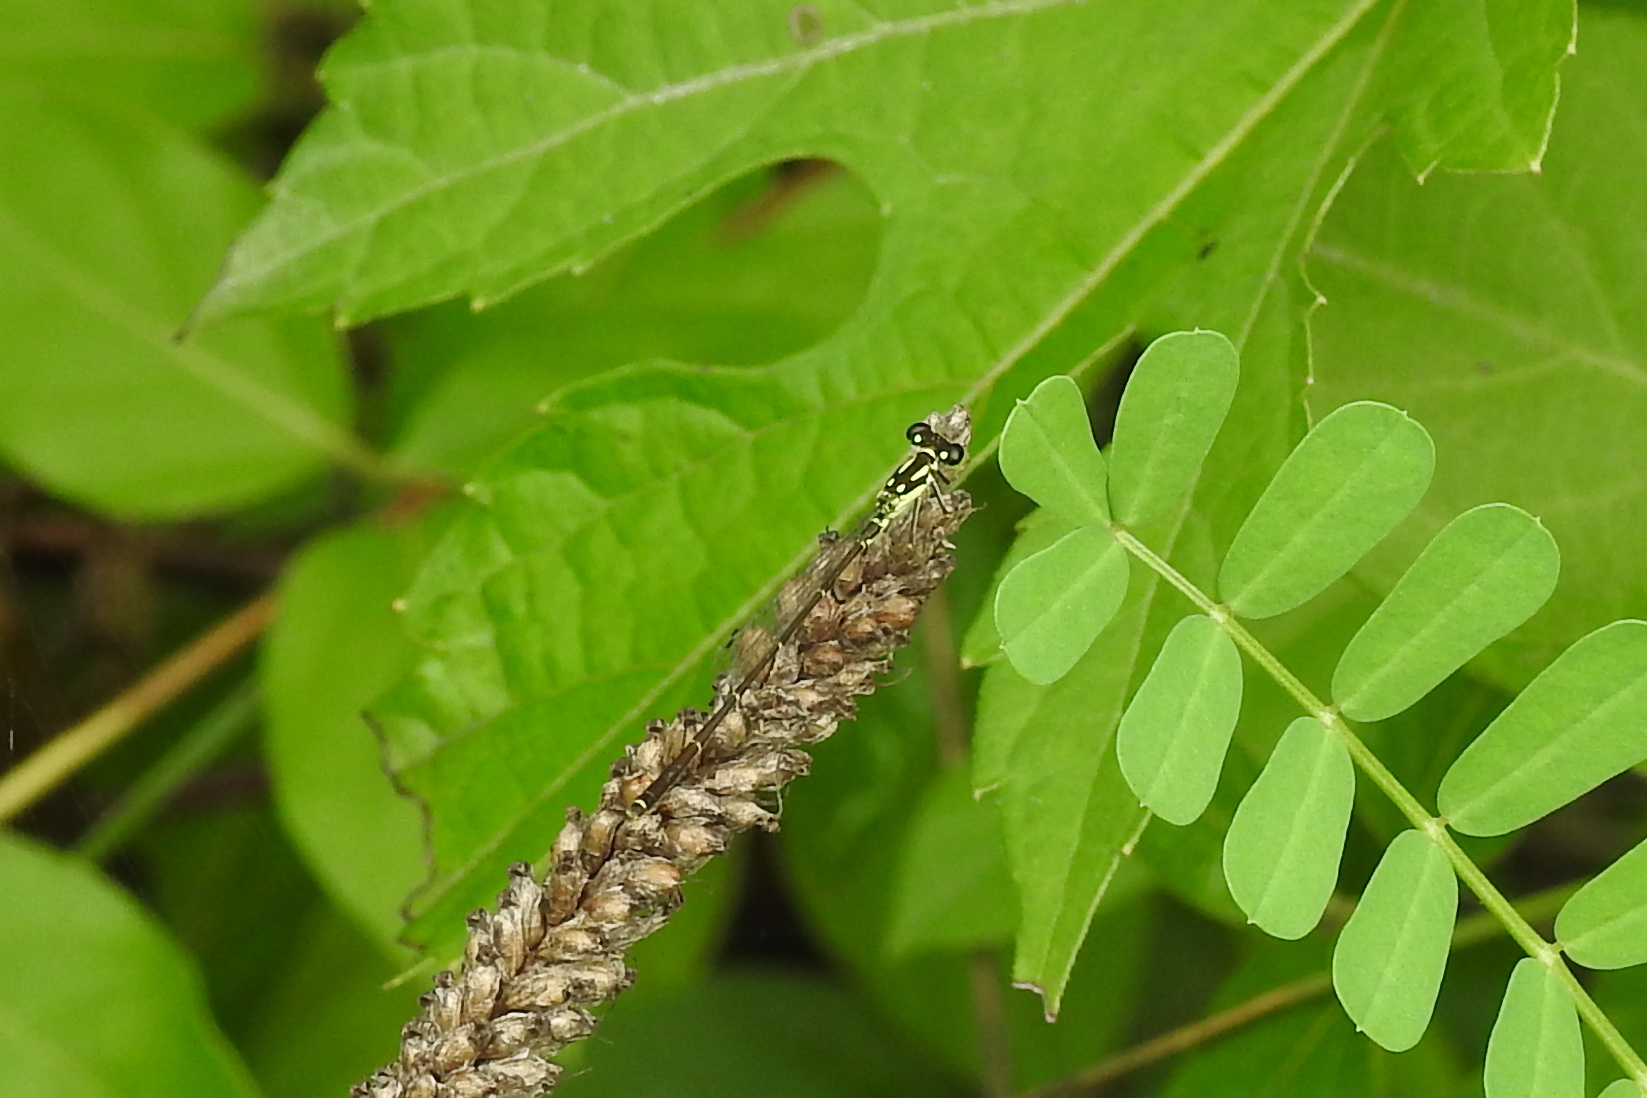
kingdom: Animalia
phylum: Arthropoda
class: Insecta
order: Odonata
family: Coenagrionidae
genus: Ischnura
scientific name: Ischnura posita
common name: Fragile forktail
